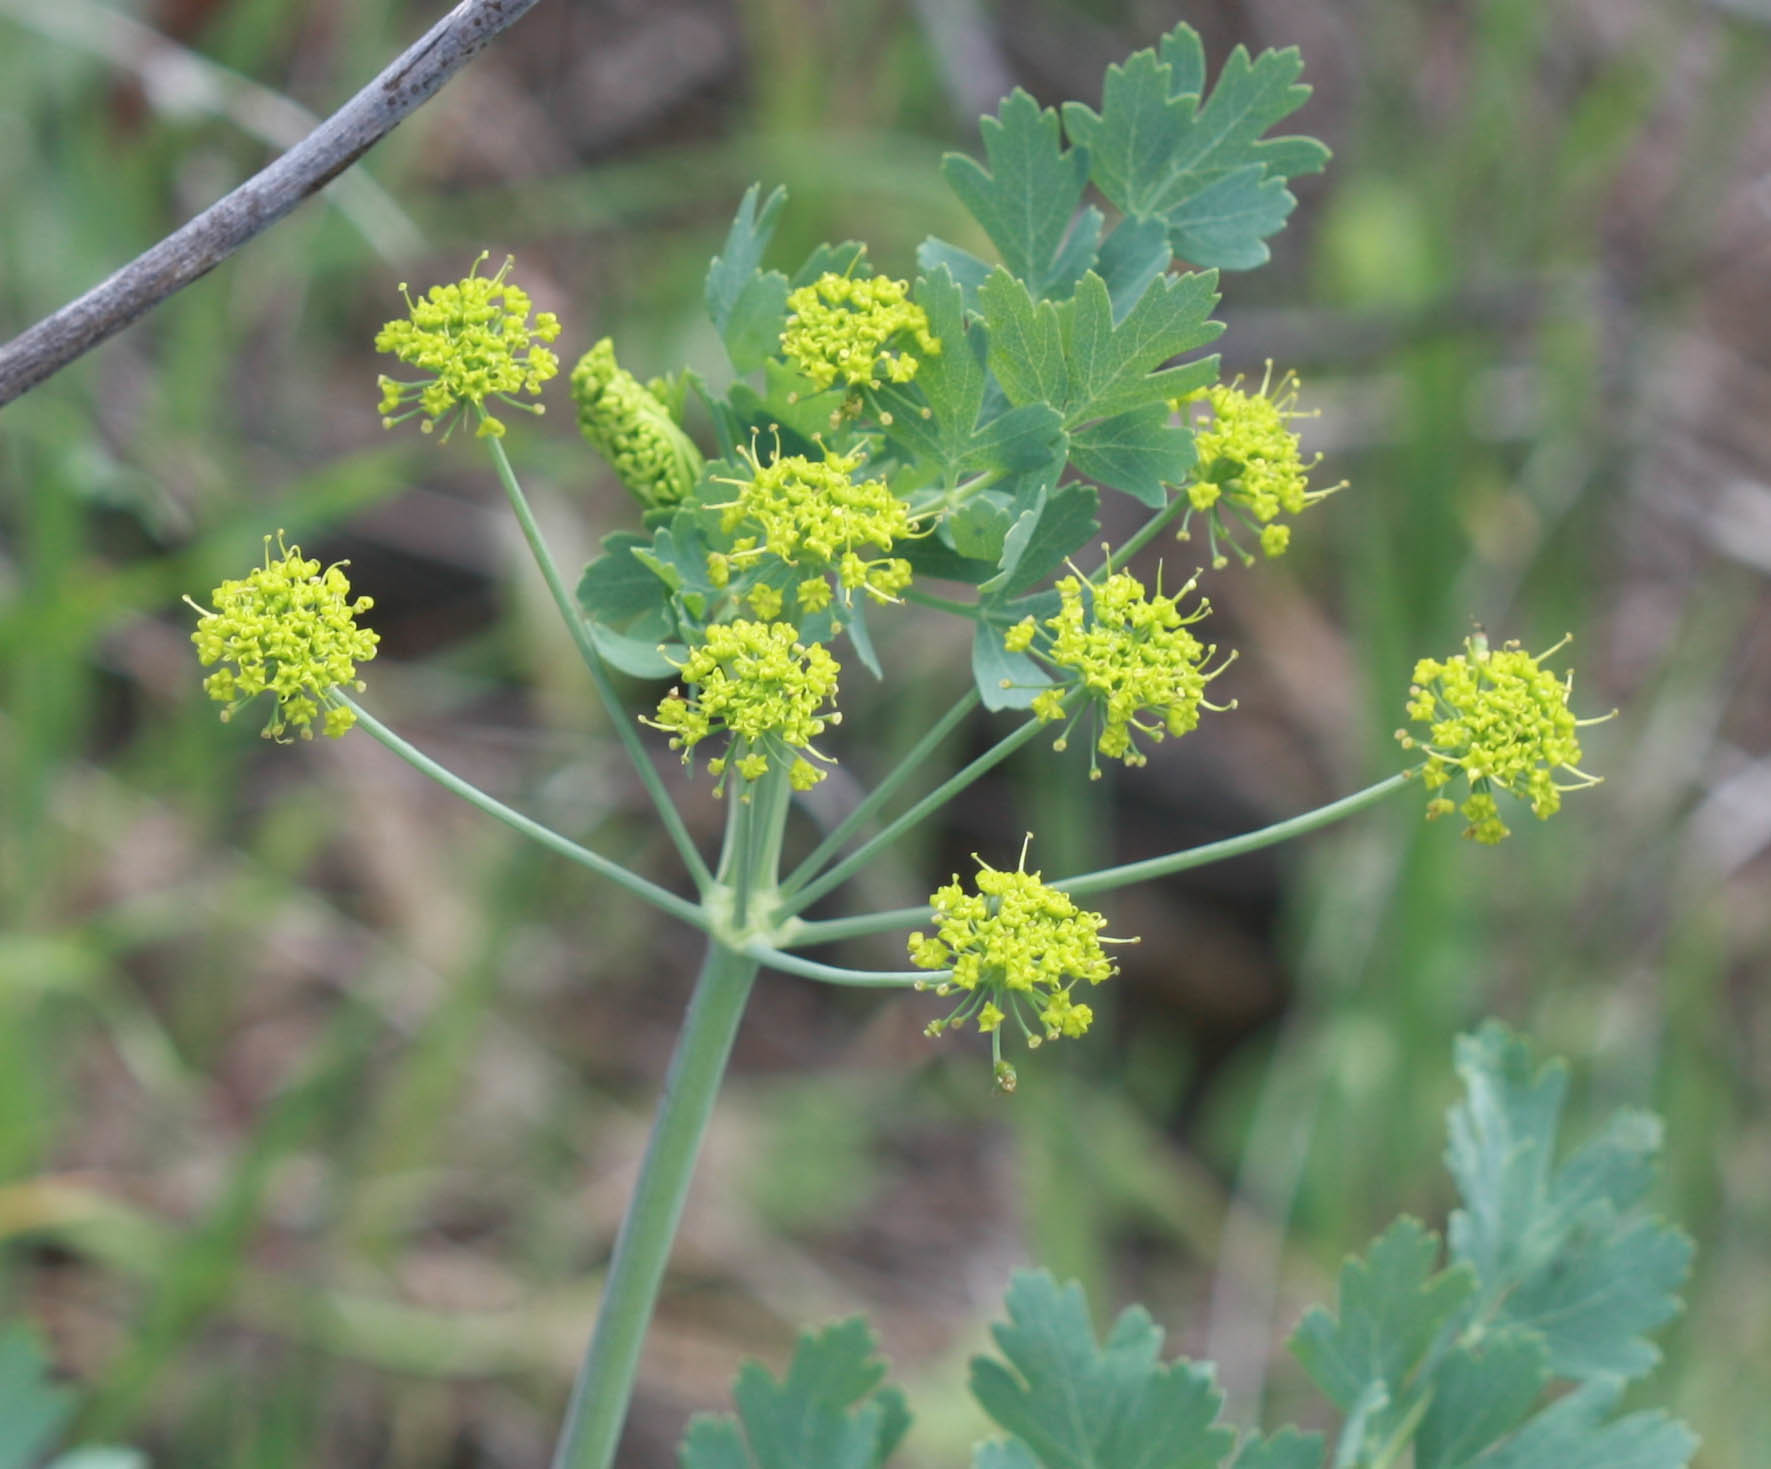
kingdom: Plantae
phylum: Tracheophyta
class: Magnoliopsida
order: Apiales
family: Apiaceae
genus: Lomatium
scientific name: Lomatium californicum
